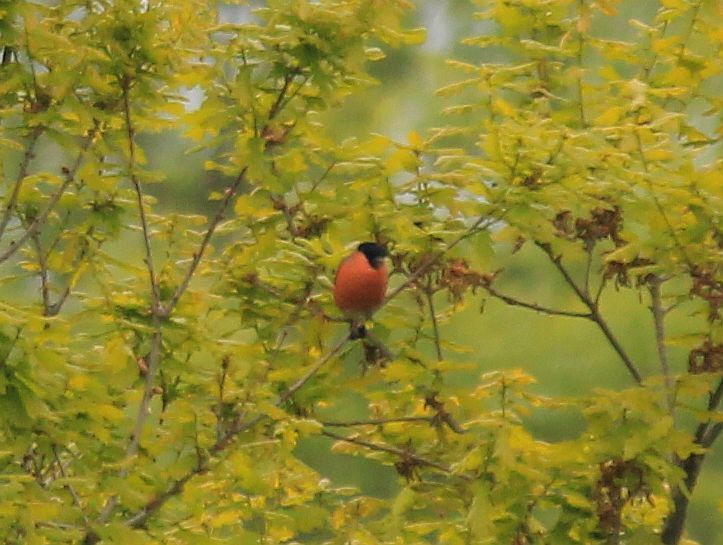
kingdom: Animalia
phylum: Chordata
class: Aves
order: Passeriformes
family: Fringillidae
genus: Pyrrhula
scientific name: Pyrrhula pyrrhula
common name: Eurasian bullfinch
